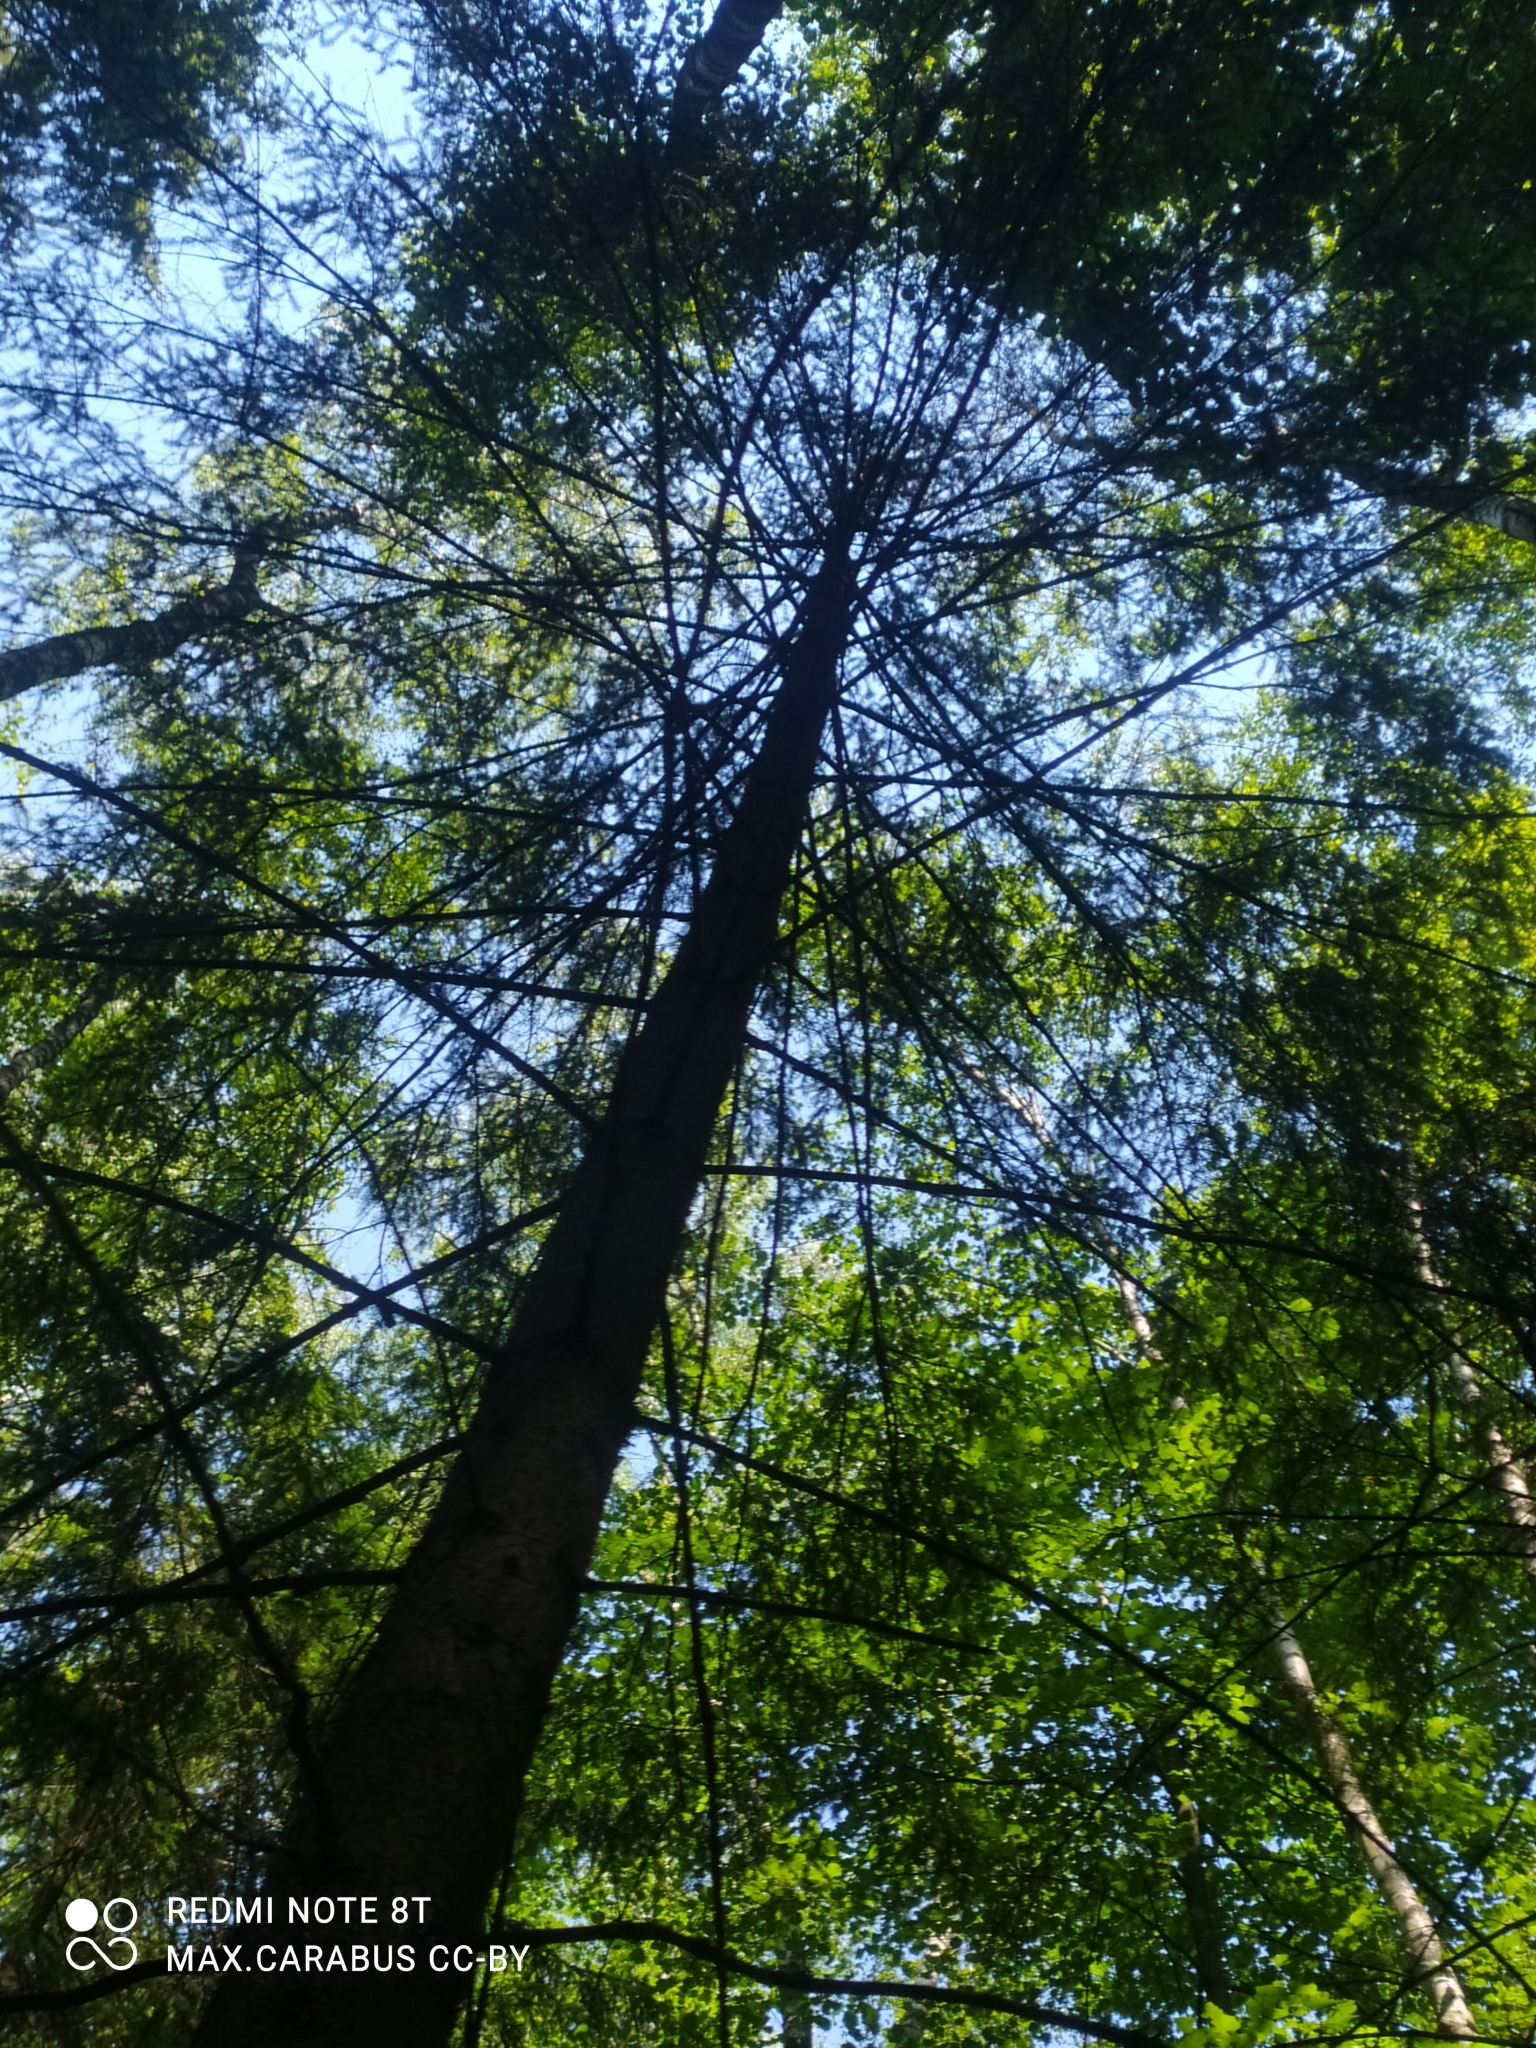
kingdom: Plantae
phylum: Tracheophyta
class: Pinopsida
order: Pinales
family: Pinaceae
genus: Picea
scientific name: Picea abies
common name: Norway spruce
